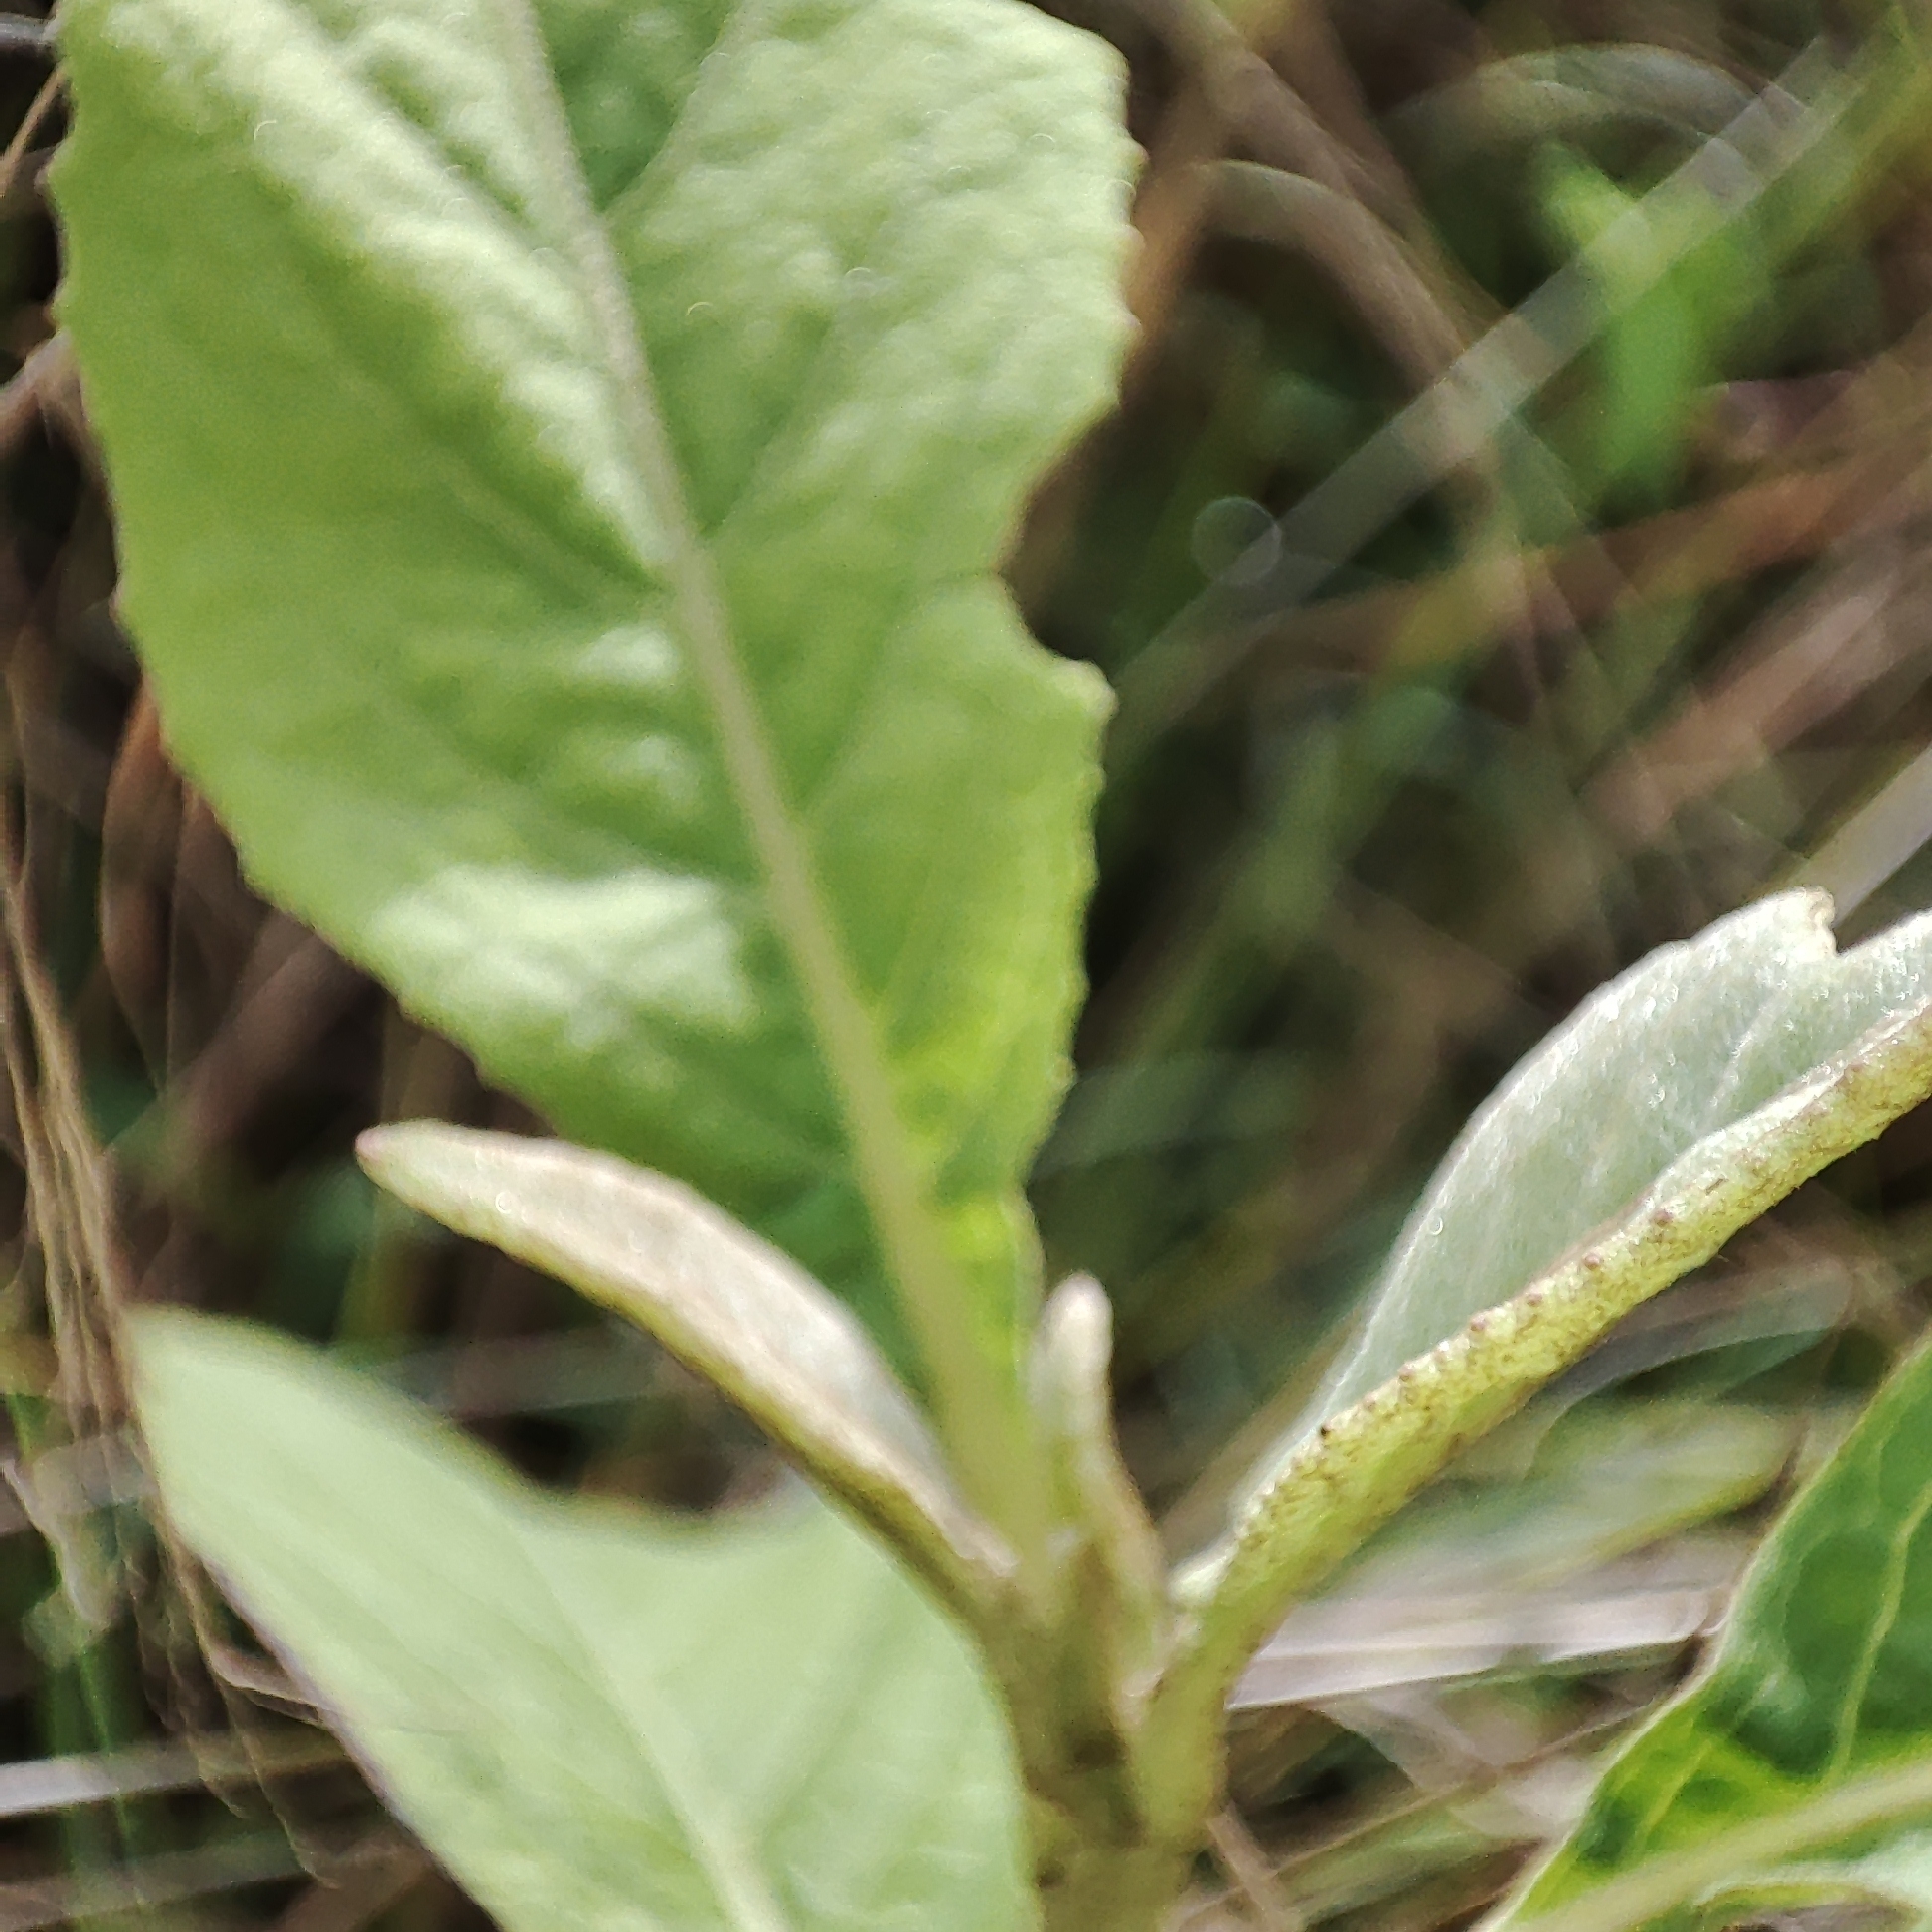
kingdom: Plantae
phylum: Tracheophyta
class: Magnoliopsida
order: Asterales
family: Asteraceae
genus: Pluchea
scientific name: Pluchea carolinensis
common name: Marsh fleabane
